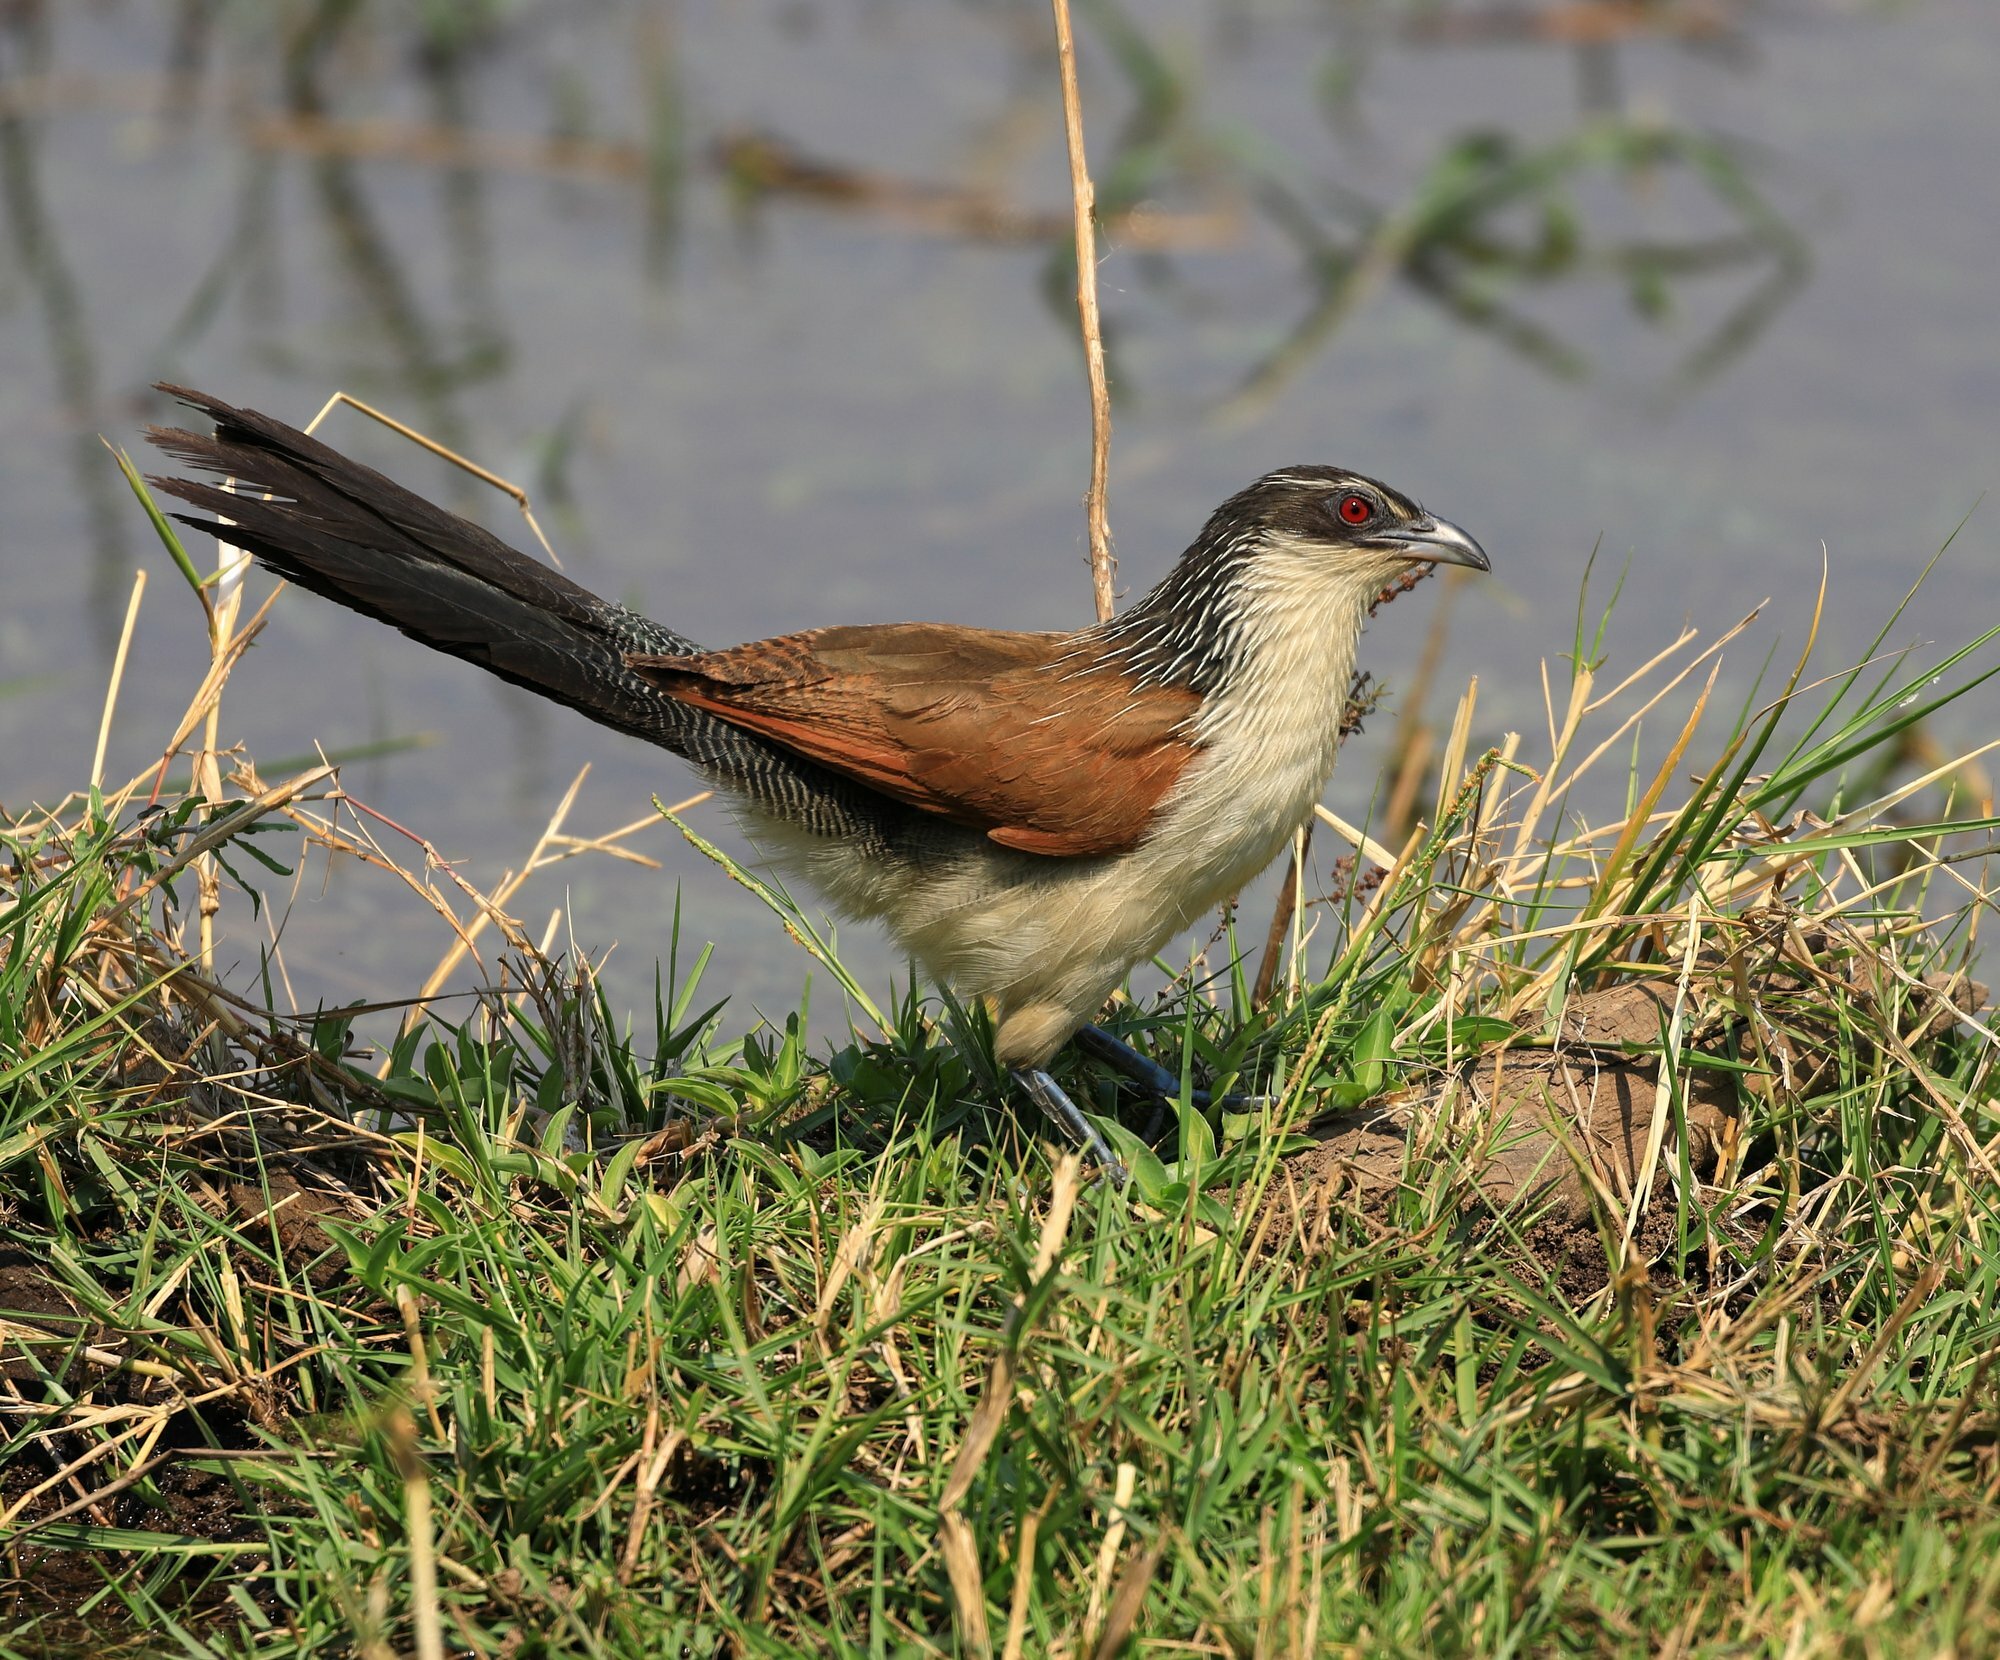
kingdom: Animalia
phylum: Chordata
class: Aves
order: Cuculiformes
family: Cuculidae
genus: Centropus
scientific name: Centropus superciliosus
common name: White-browed coucal
